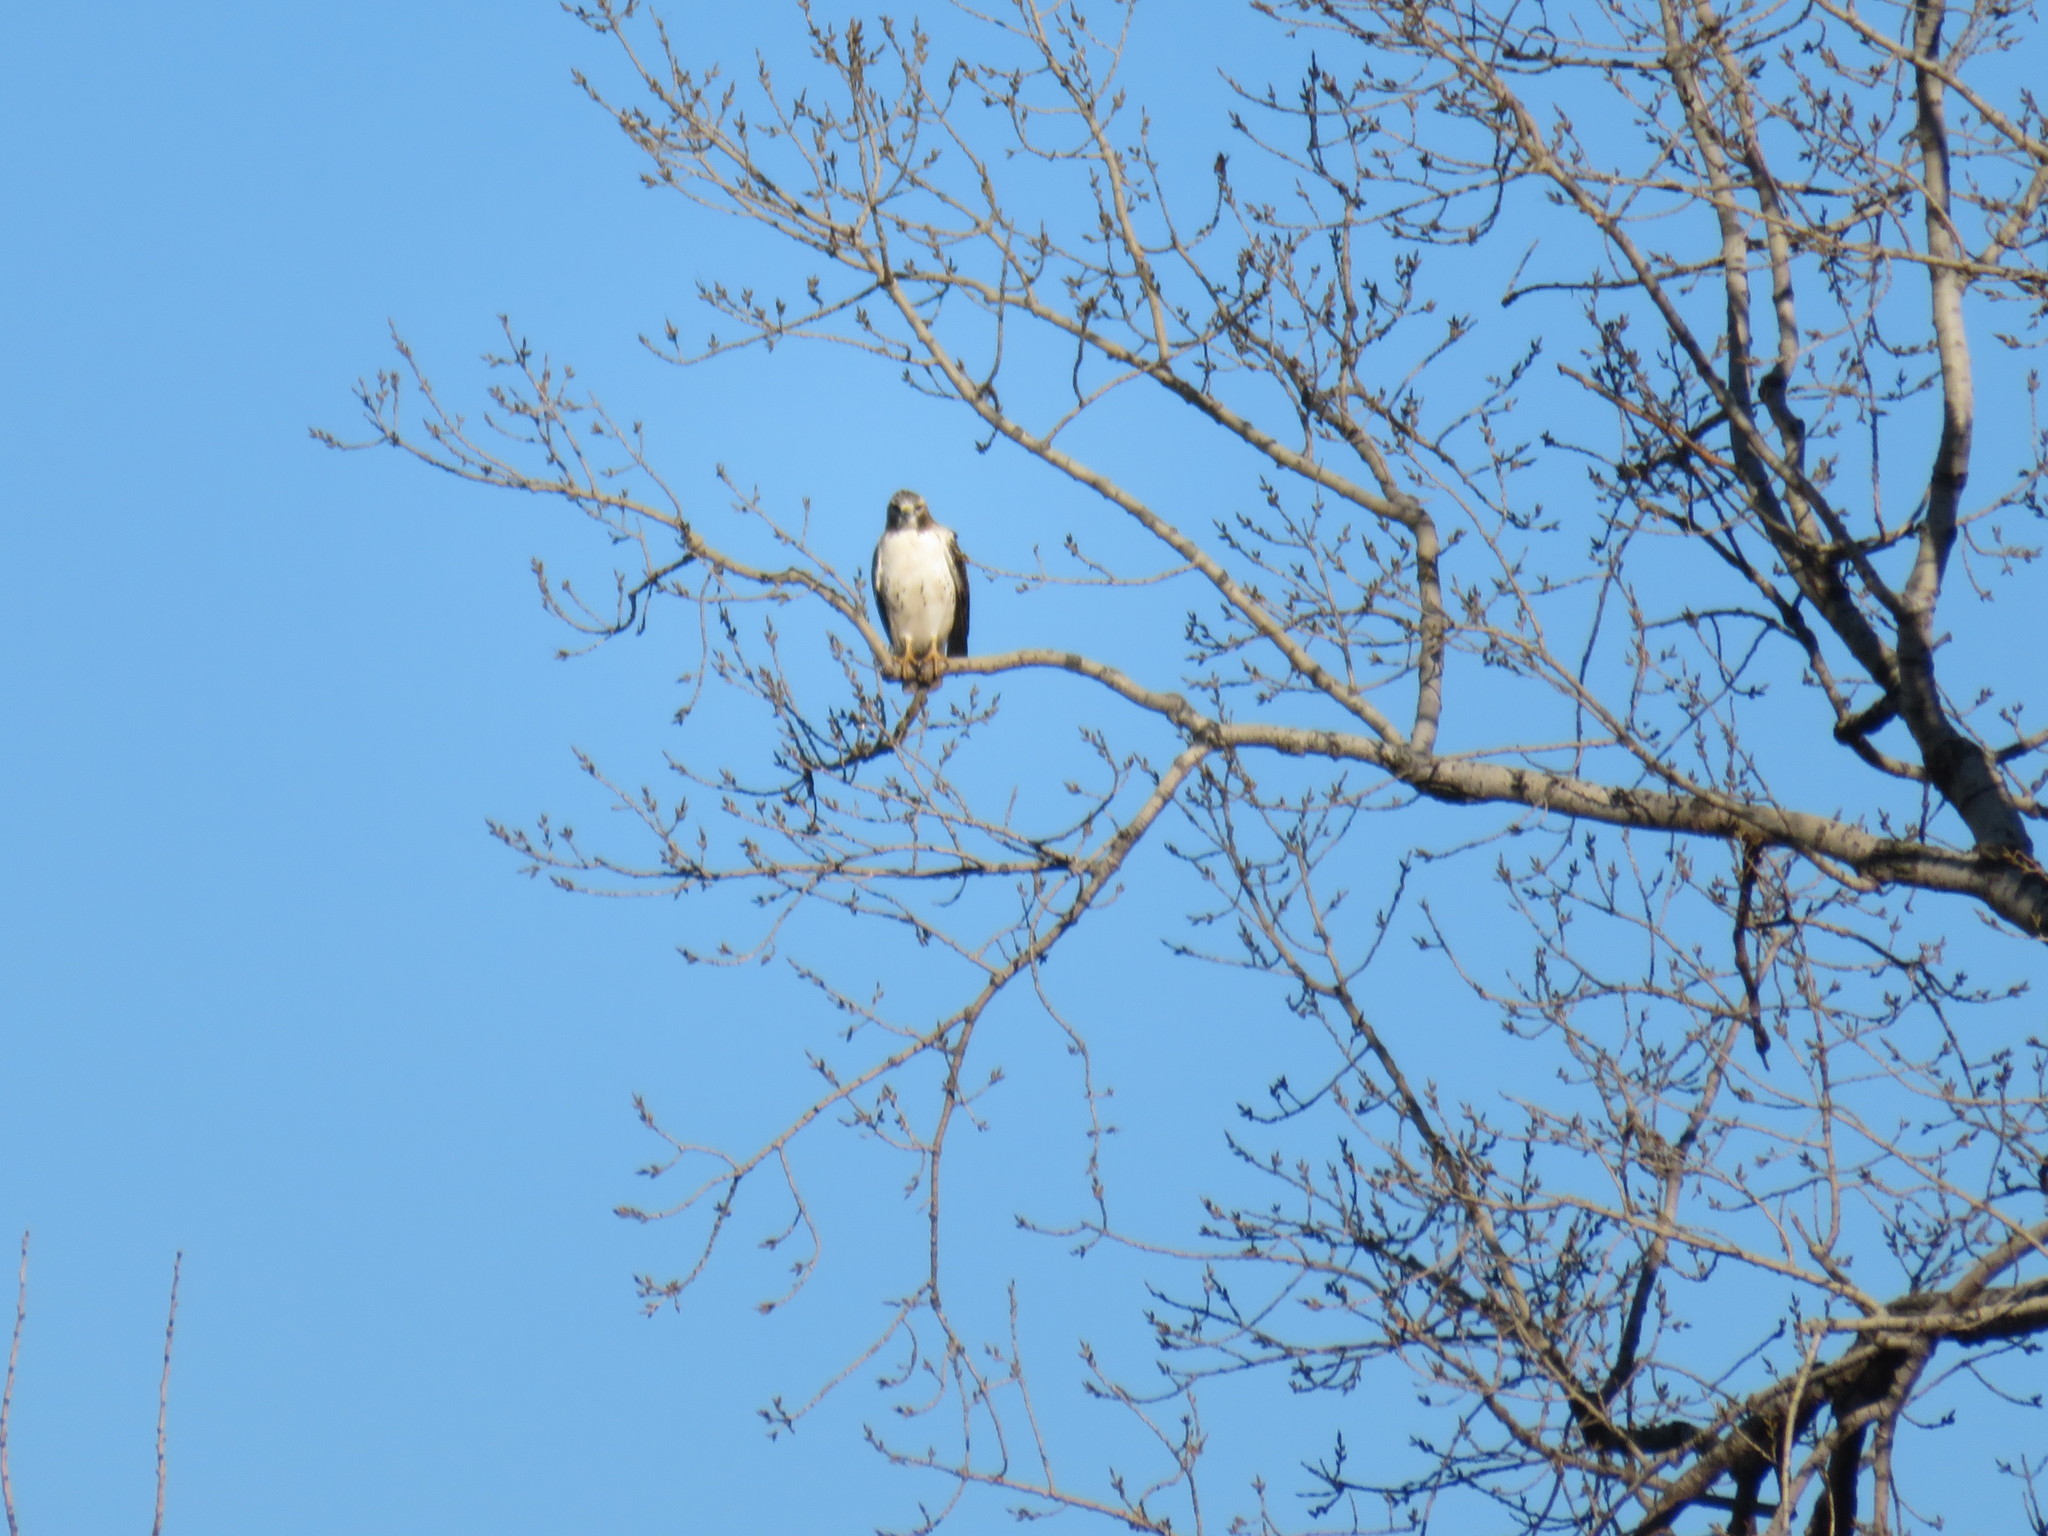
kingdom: Animalia
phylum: Chordata
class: Aves
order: Accipitriformes
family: Accipitridae
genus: Buteo
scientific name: Buteo jamaicensis
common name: Red-tailed hawk
